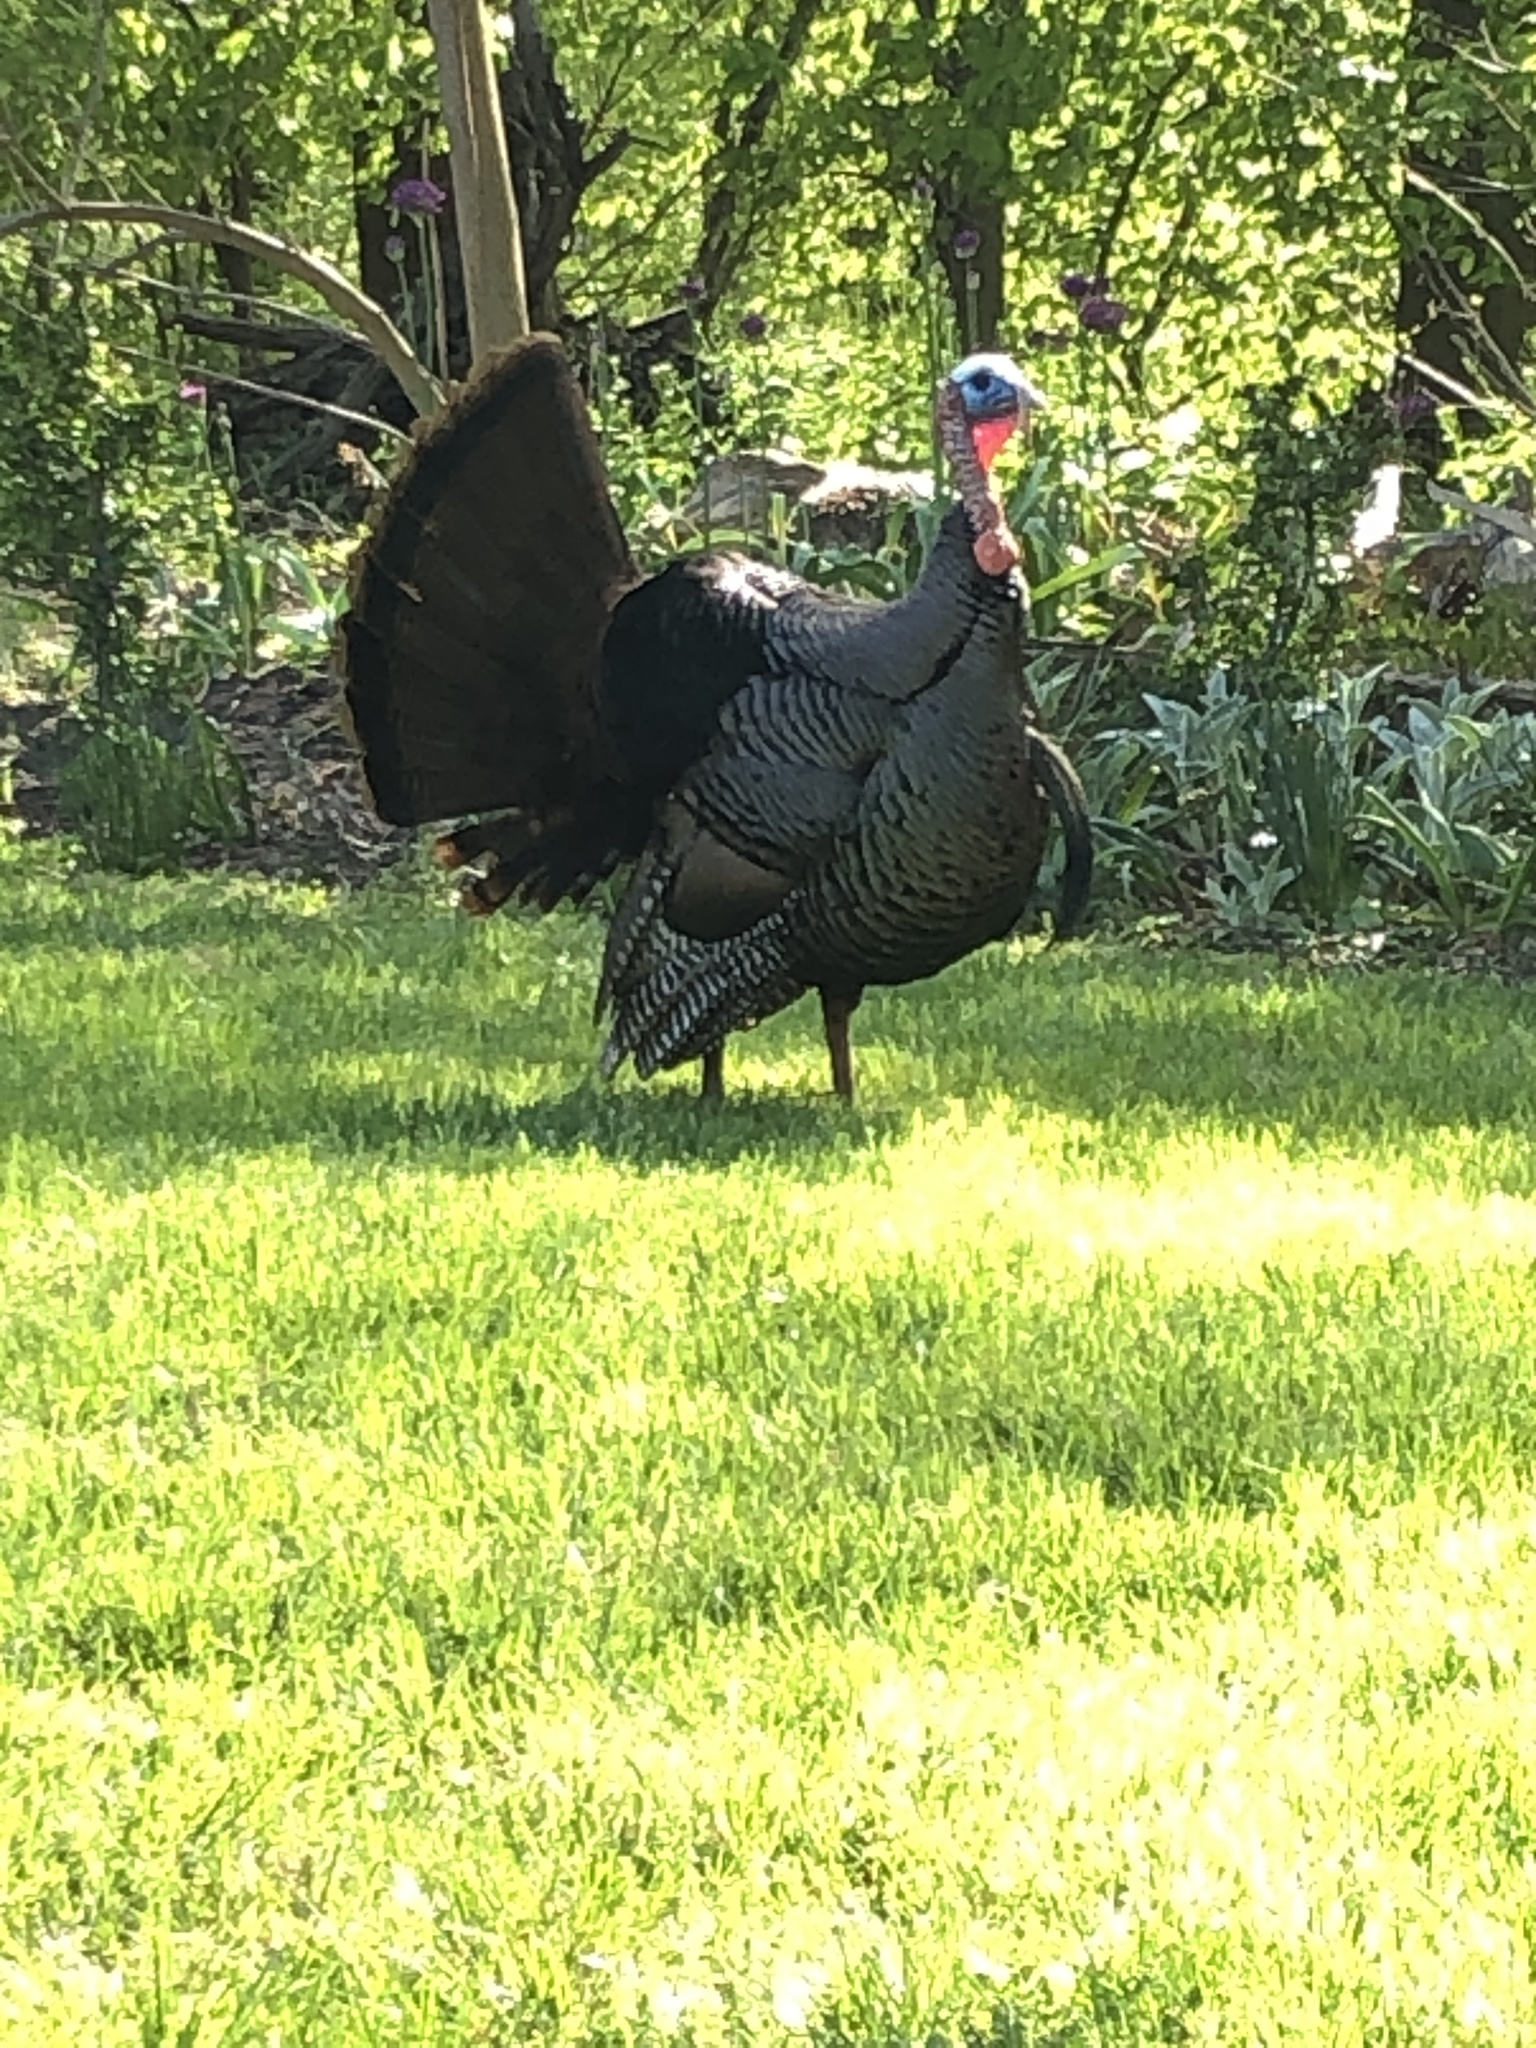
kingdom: Animalia
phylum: Chordata
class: Aves
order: Galliformes
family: Phasianidae
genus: Meleagris
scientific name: Meleagris gallopavo
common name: Wild turkey
